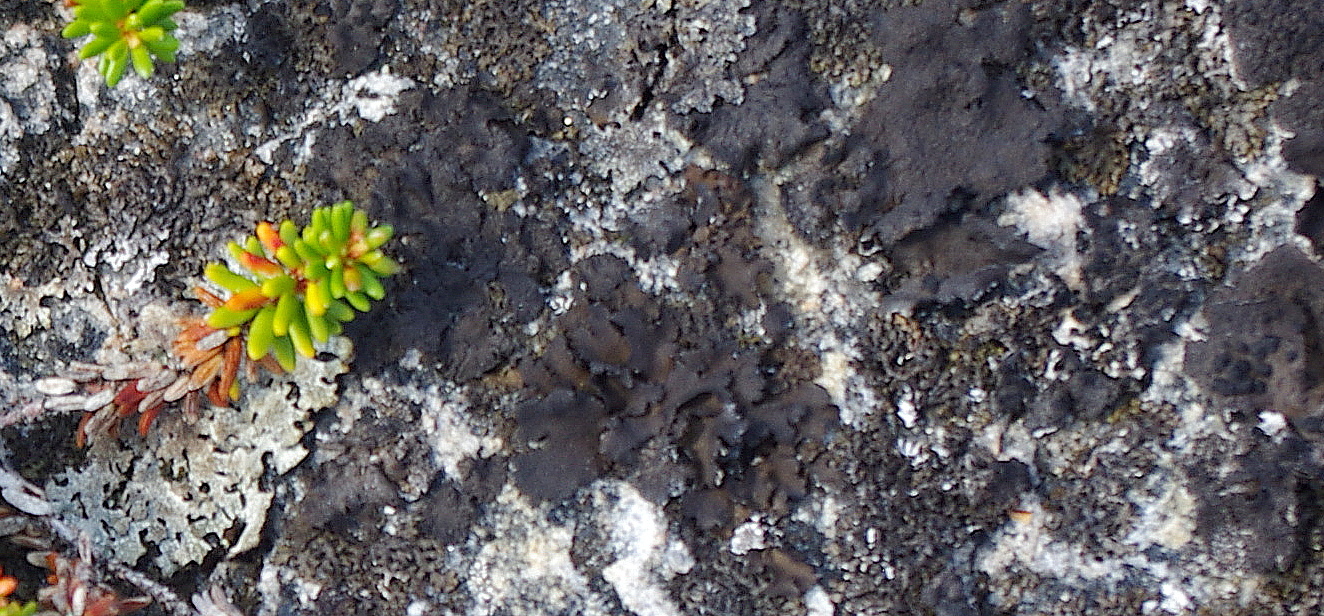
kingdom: Fungi
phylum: Ascomycota
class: Lecanoromycetes
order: Umbilicariales
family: Umbilicariaceae
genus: Umbilicaria
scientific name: Umbilicaria
